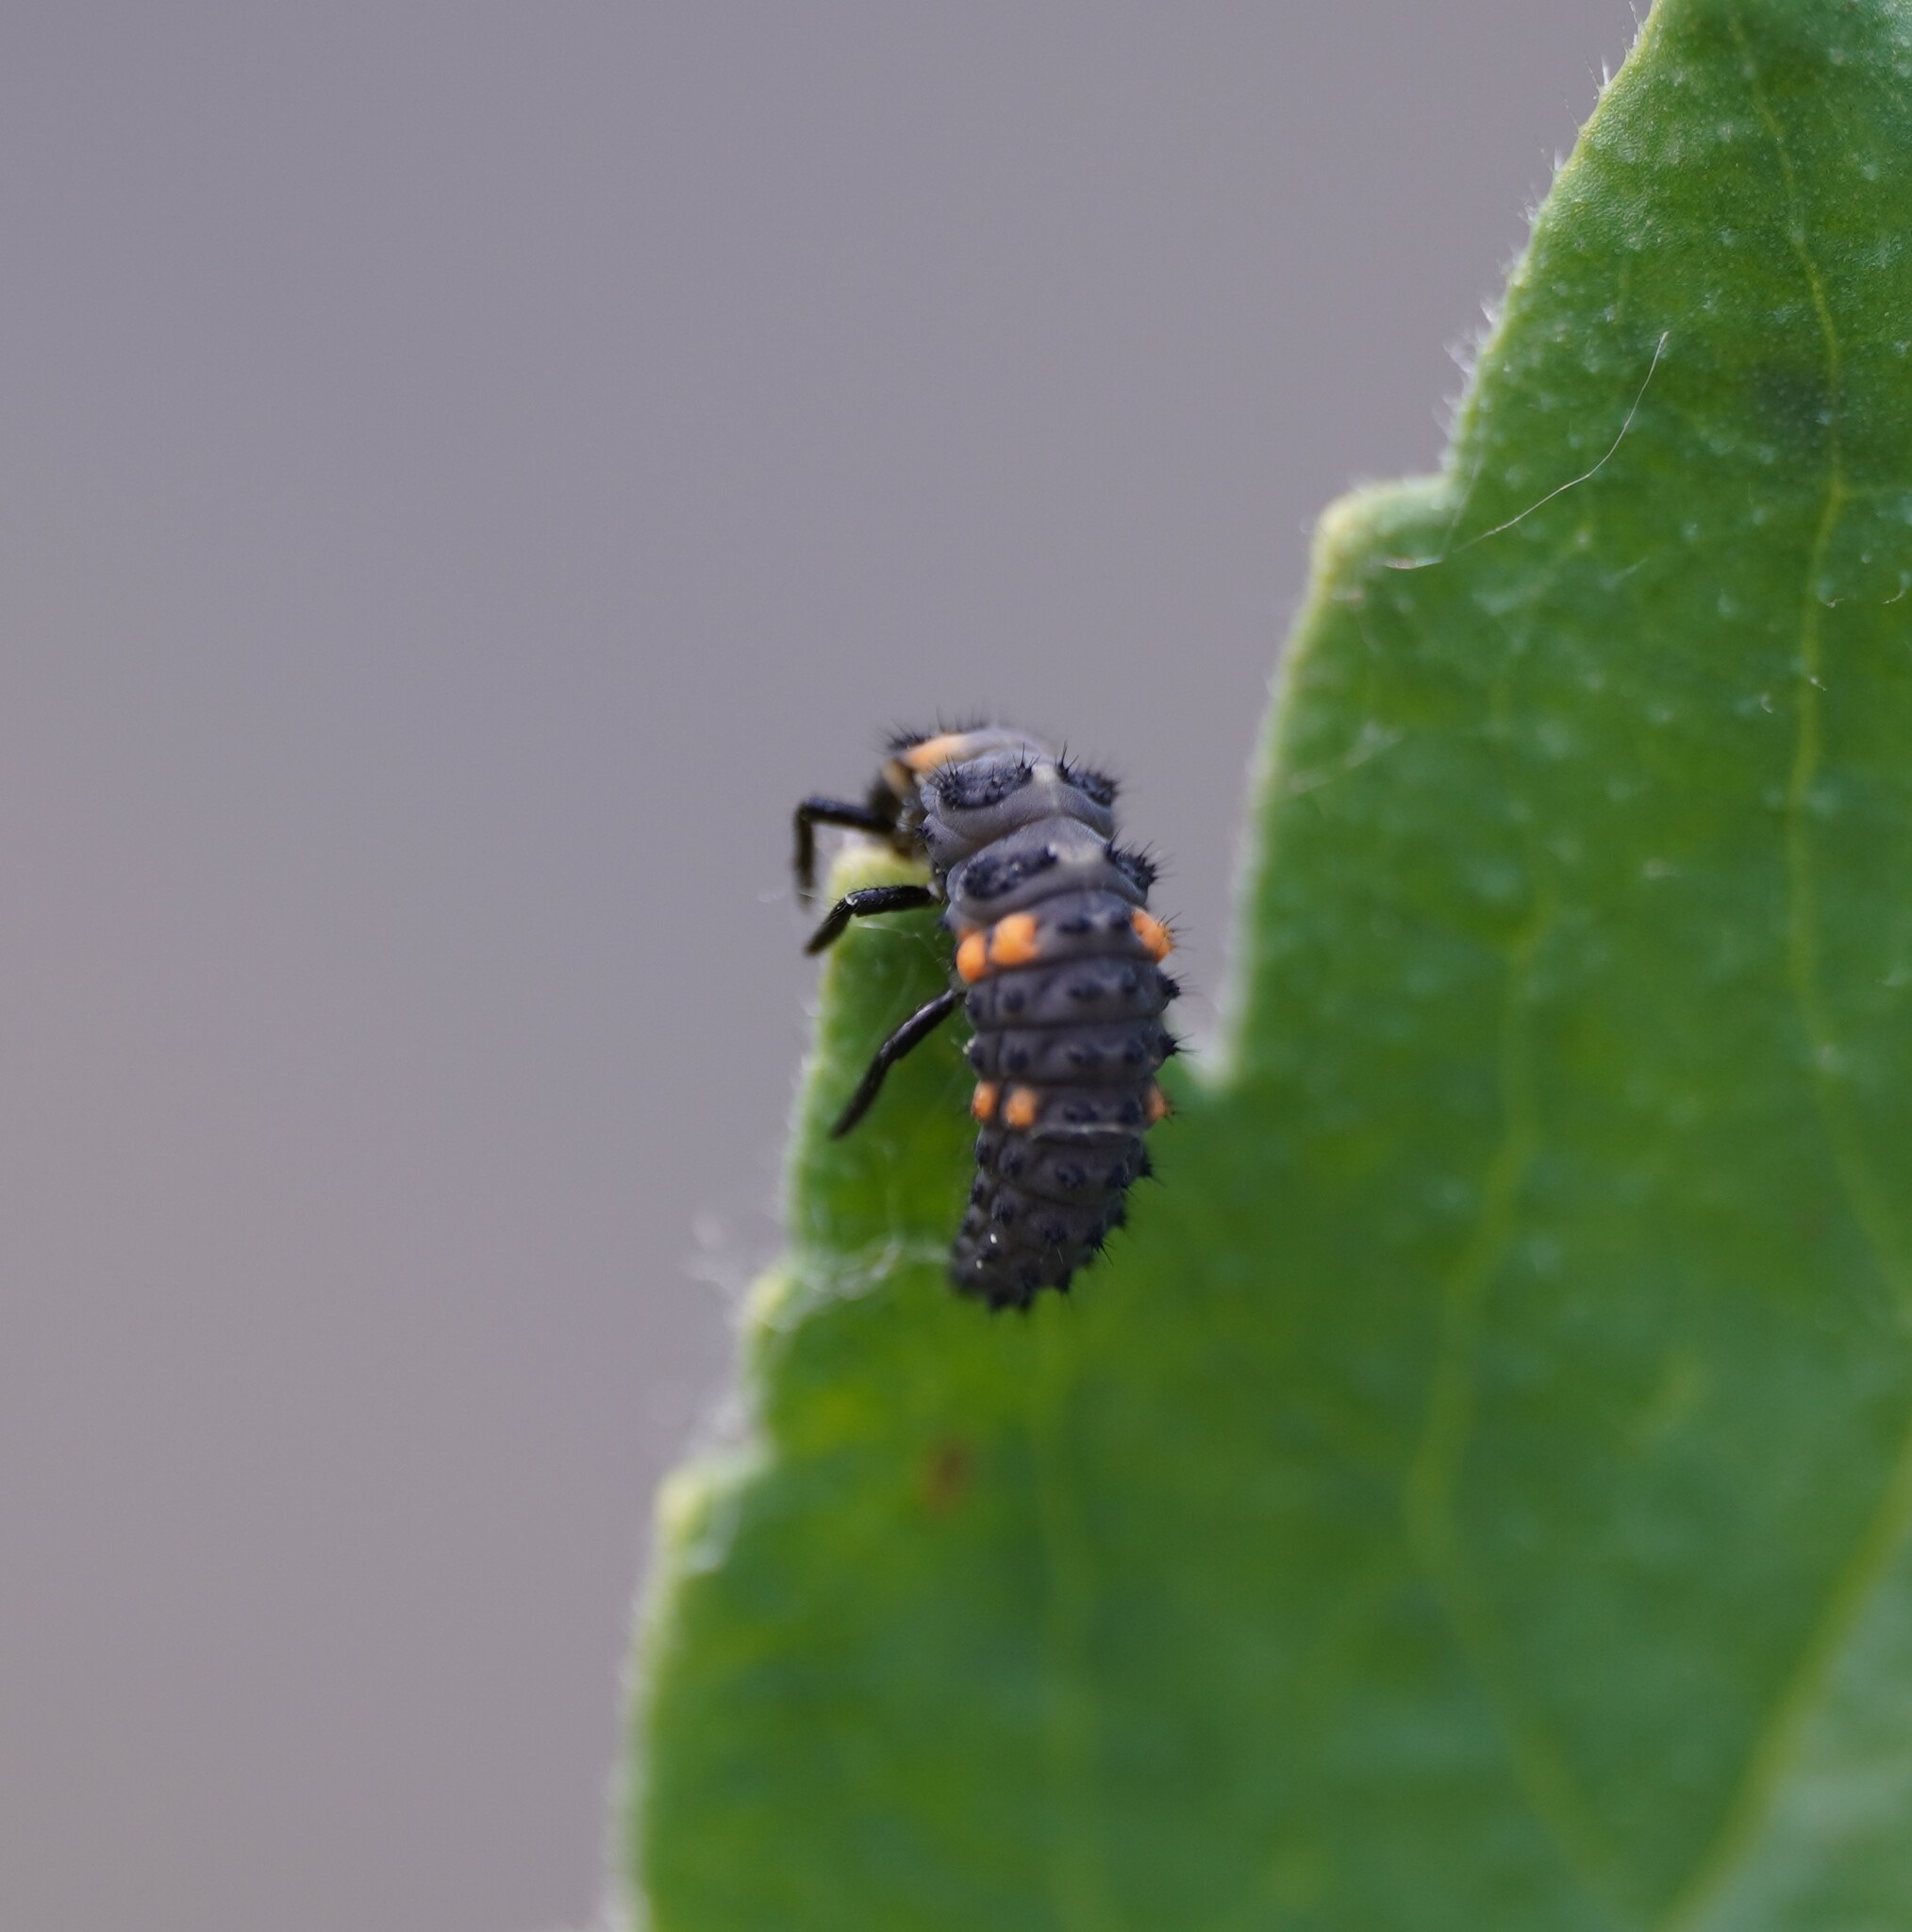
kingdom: Animalia
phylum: Arthropoda
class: Insecta
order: Coleoptera
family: Coccinellidae
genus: Coccinella
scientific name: Coccinella septempunctata
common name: Sevenspotted lady beetle
